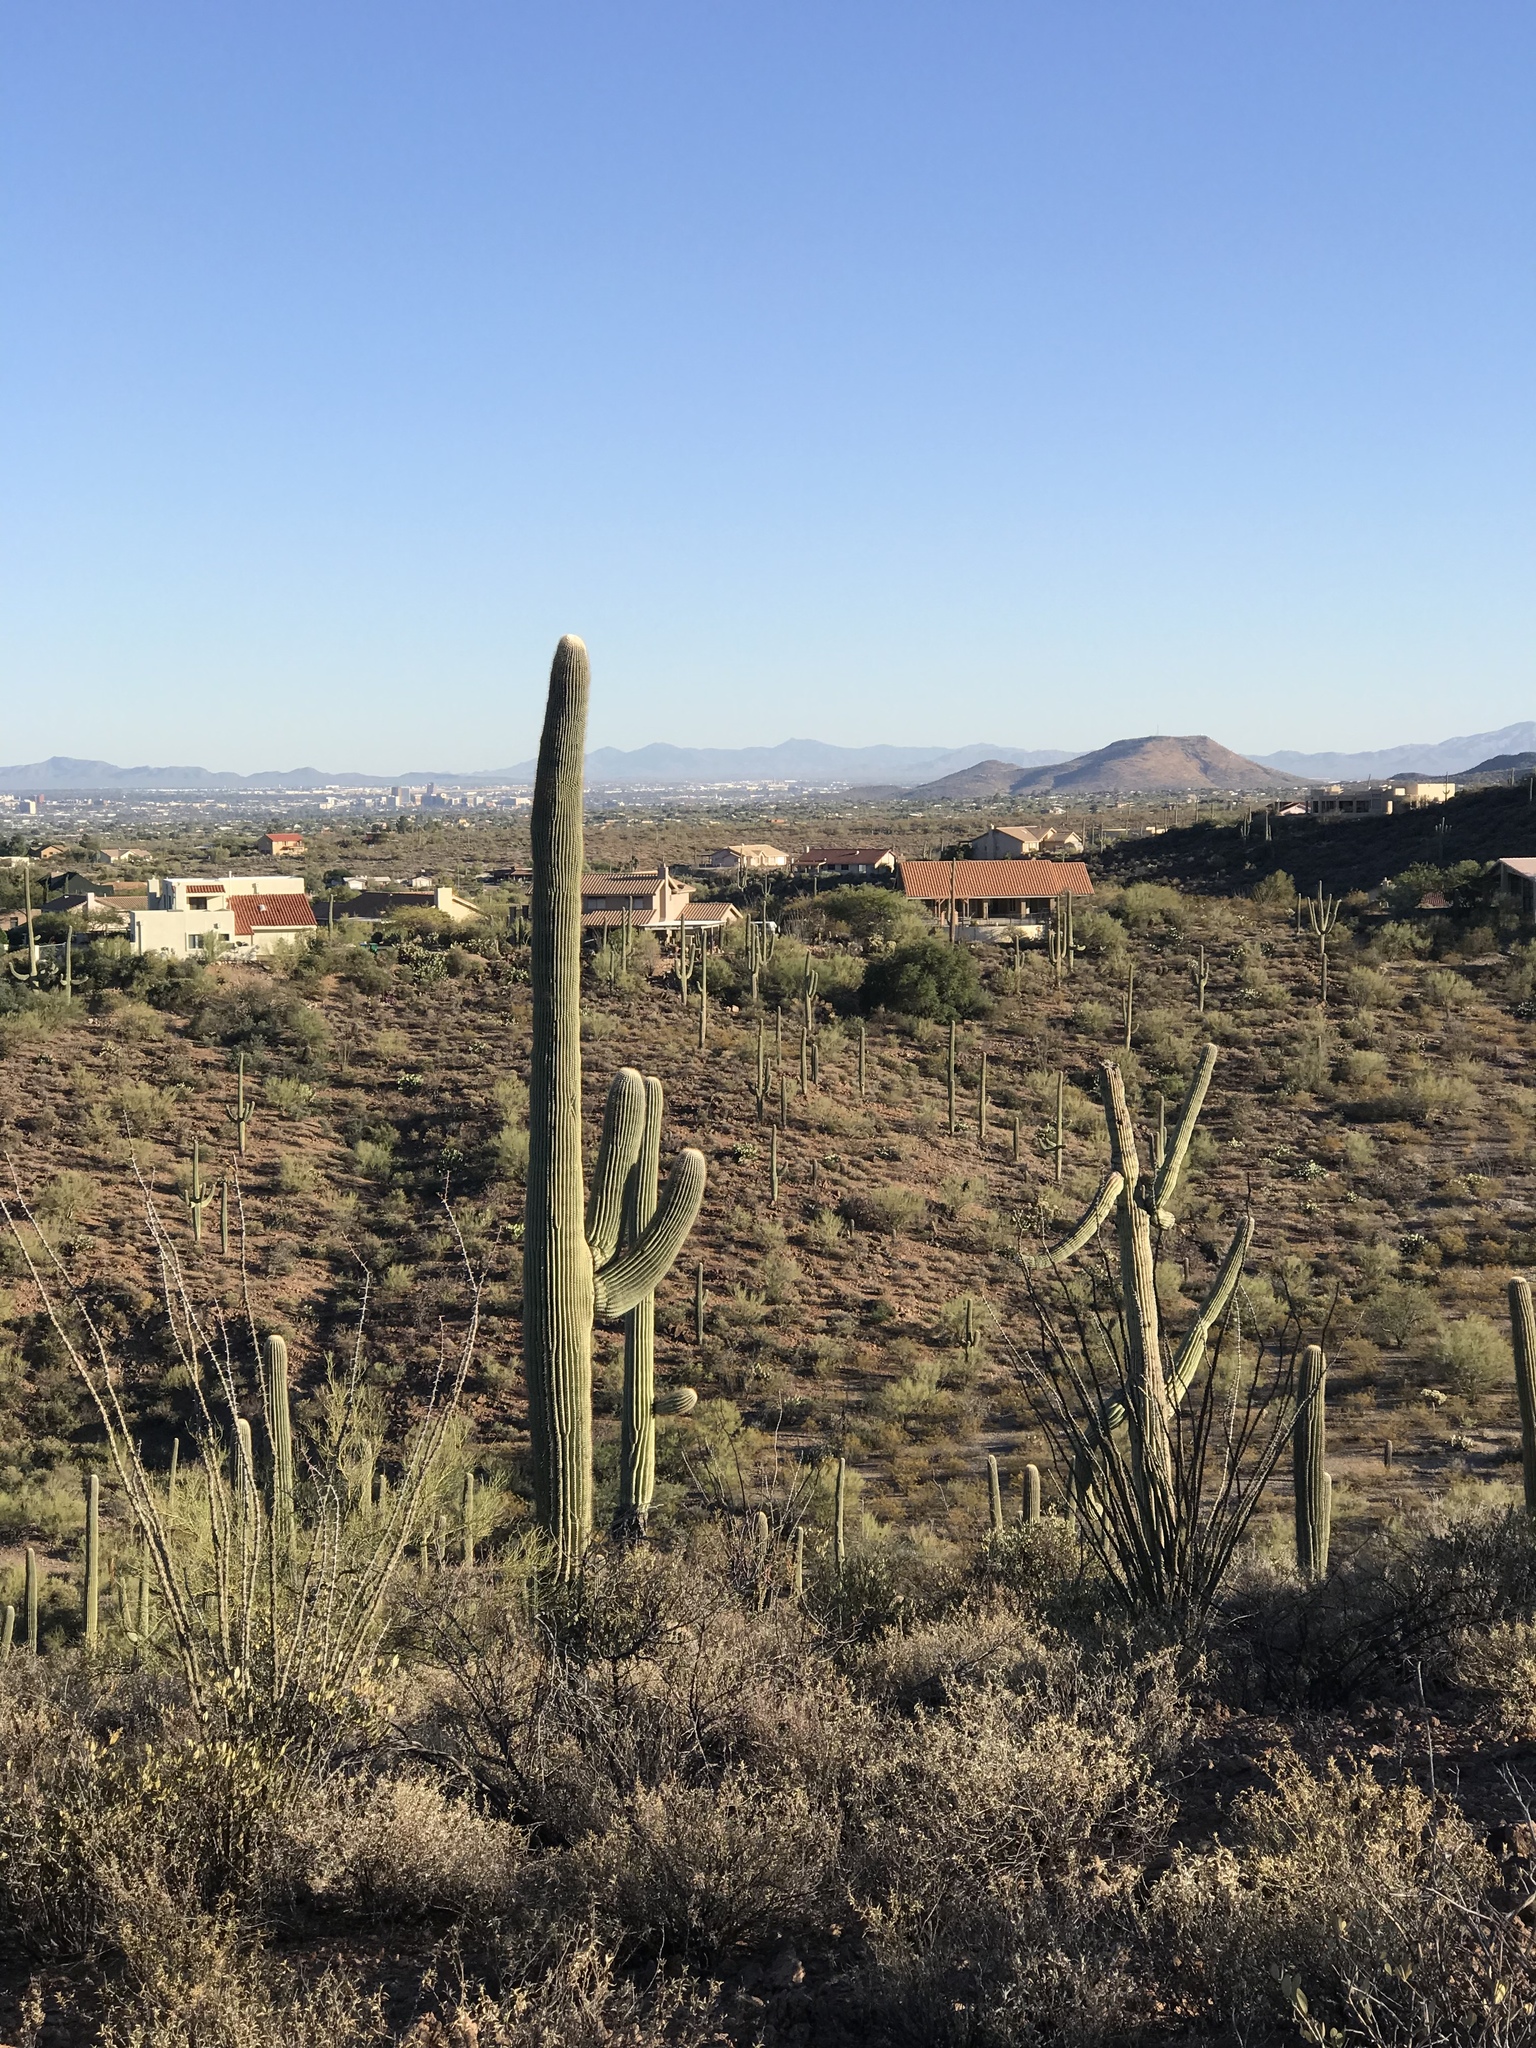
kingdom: Plantae
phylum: Tracheophyta
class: Magnoliopsida
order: Caryophyllales
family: Cactaceae
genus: Carnegiea
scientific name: Carnegiea gigantea
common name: Saguaro
